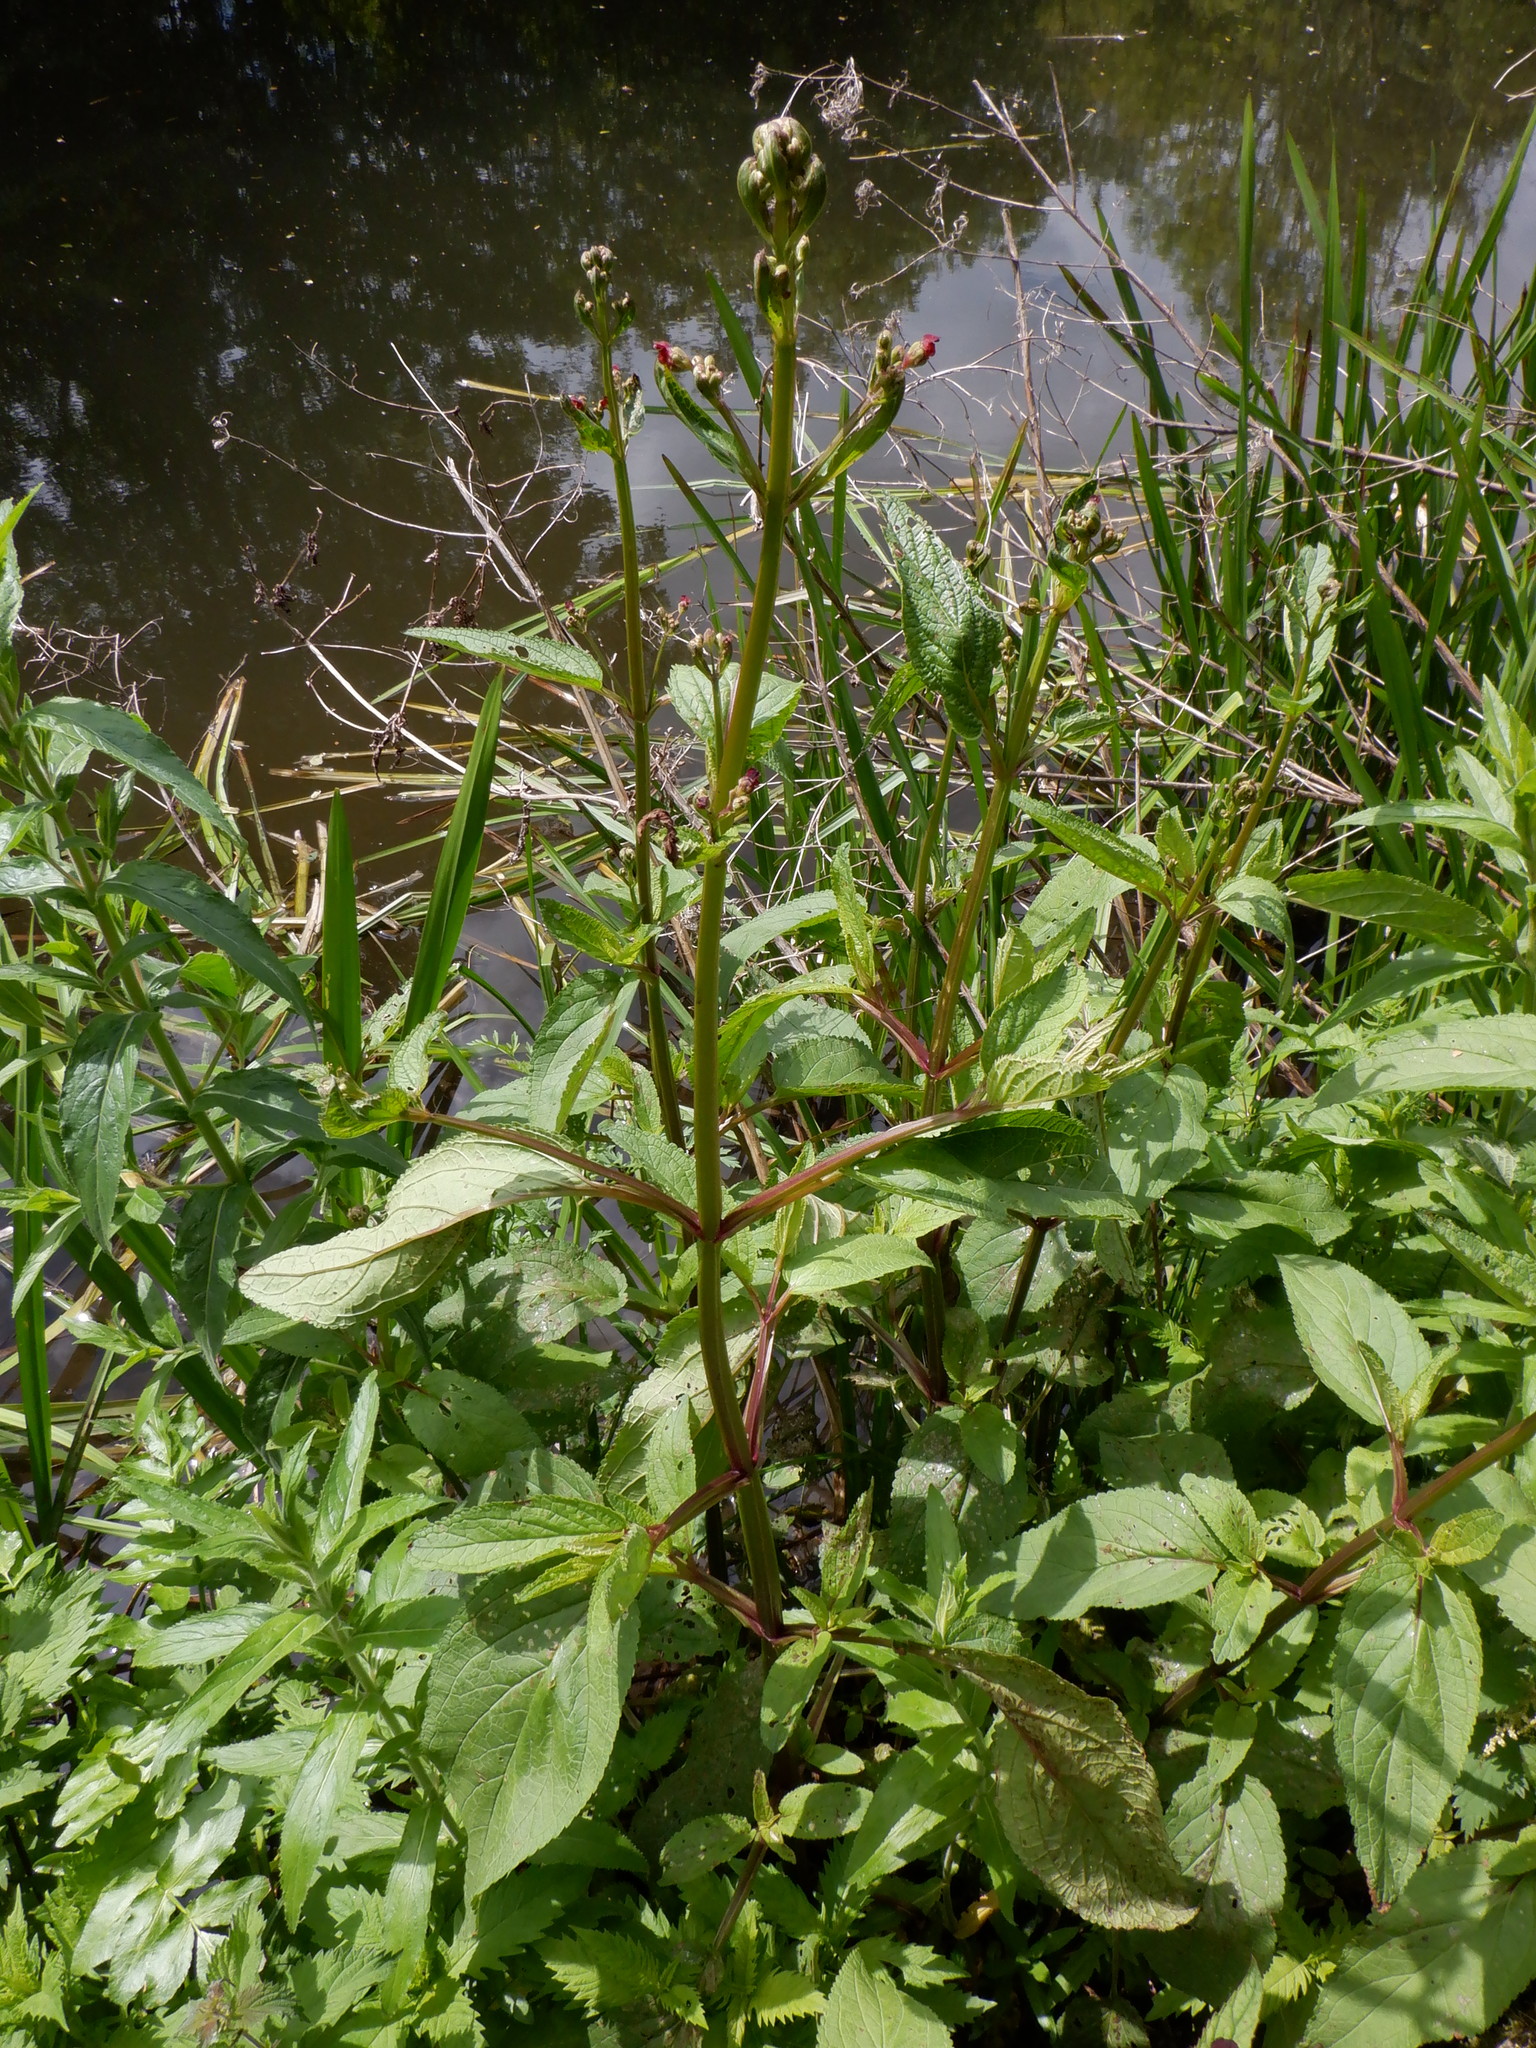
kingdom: Plantae
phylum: Tracheophyta
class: Magnoliopsida
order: Lamiales
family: Scrophulariaceae
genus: Scrophularia
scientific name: Scrophularia auriculata
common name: Water betony
